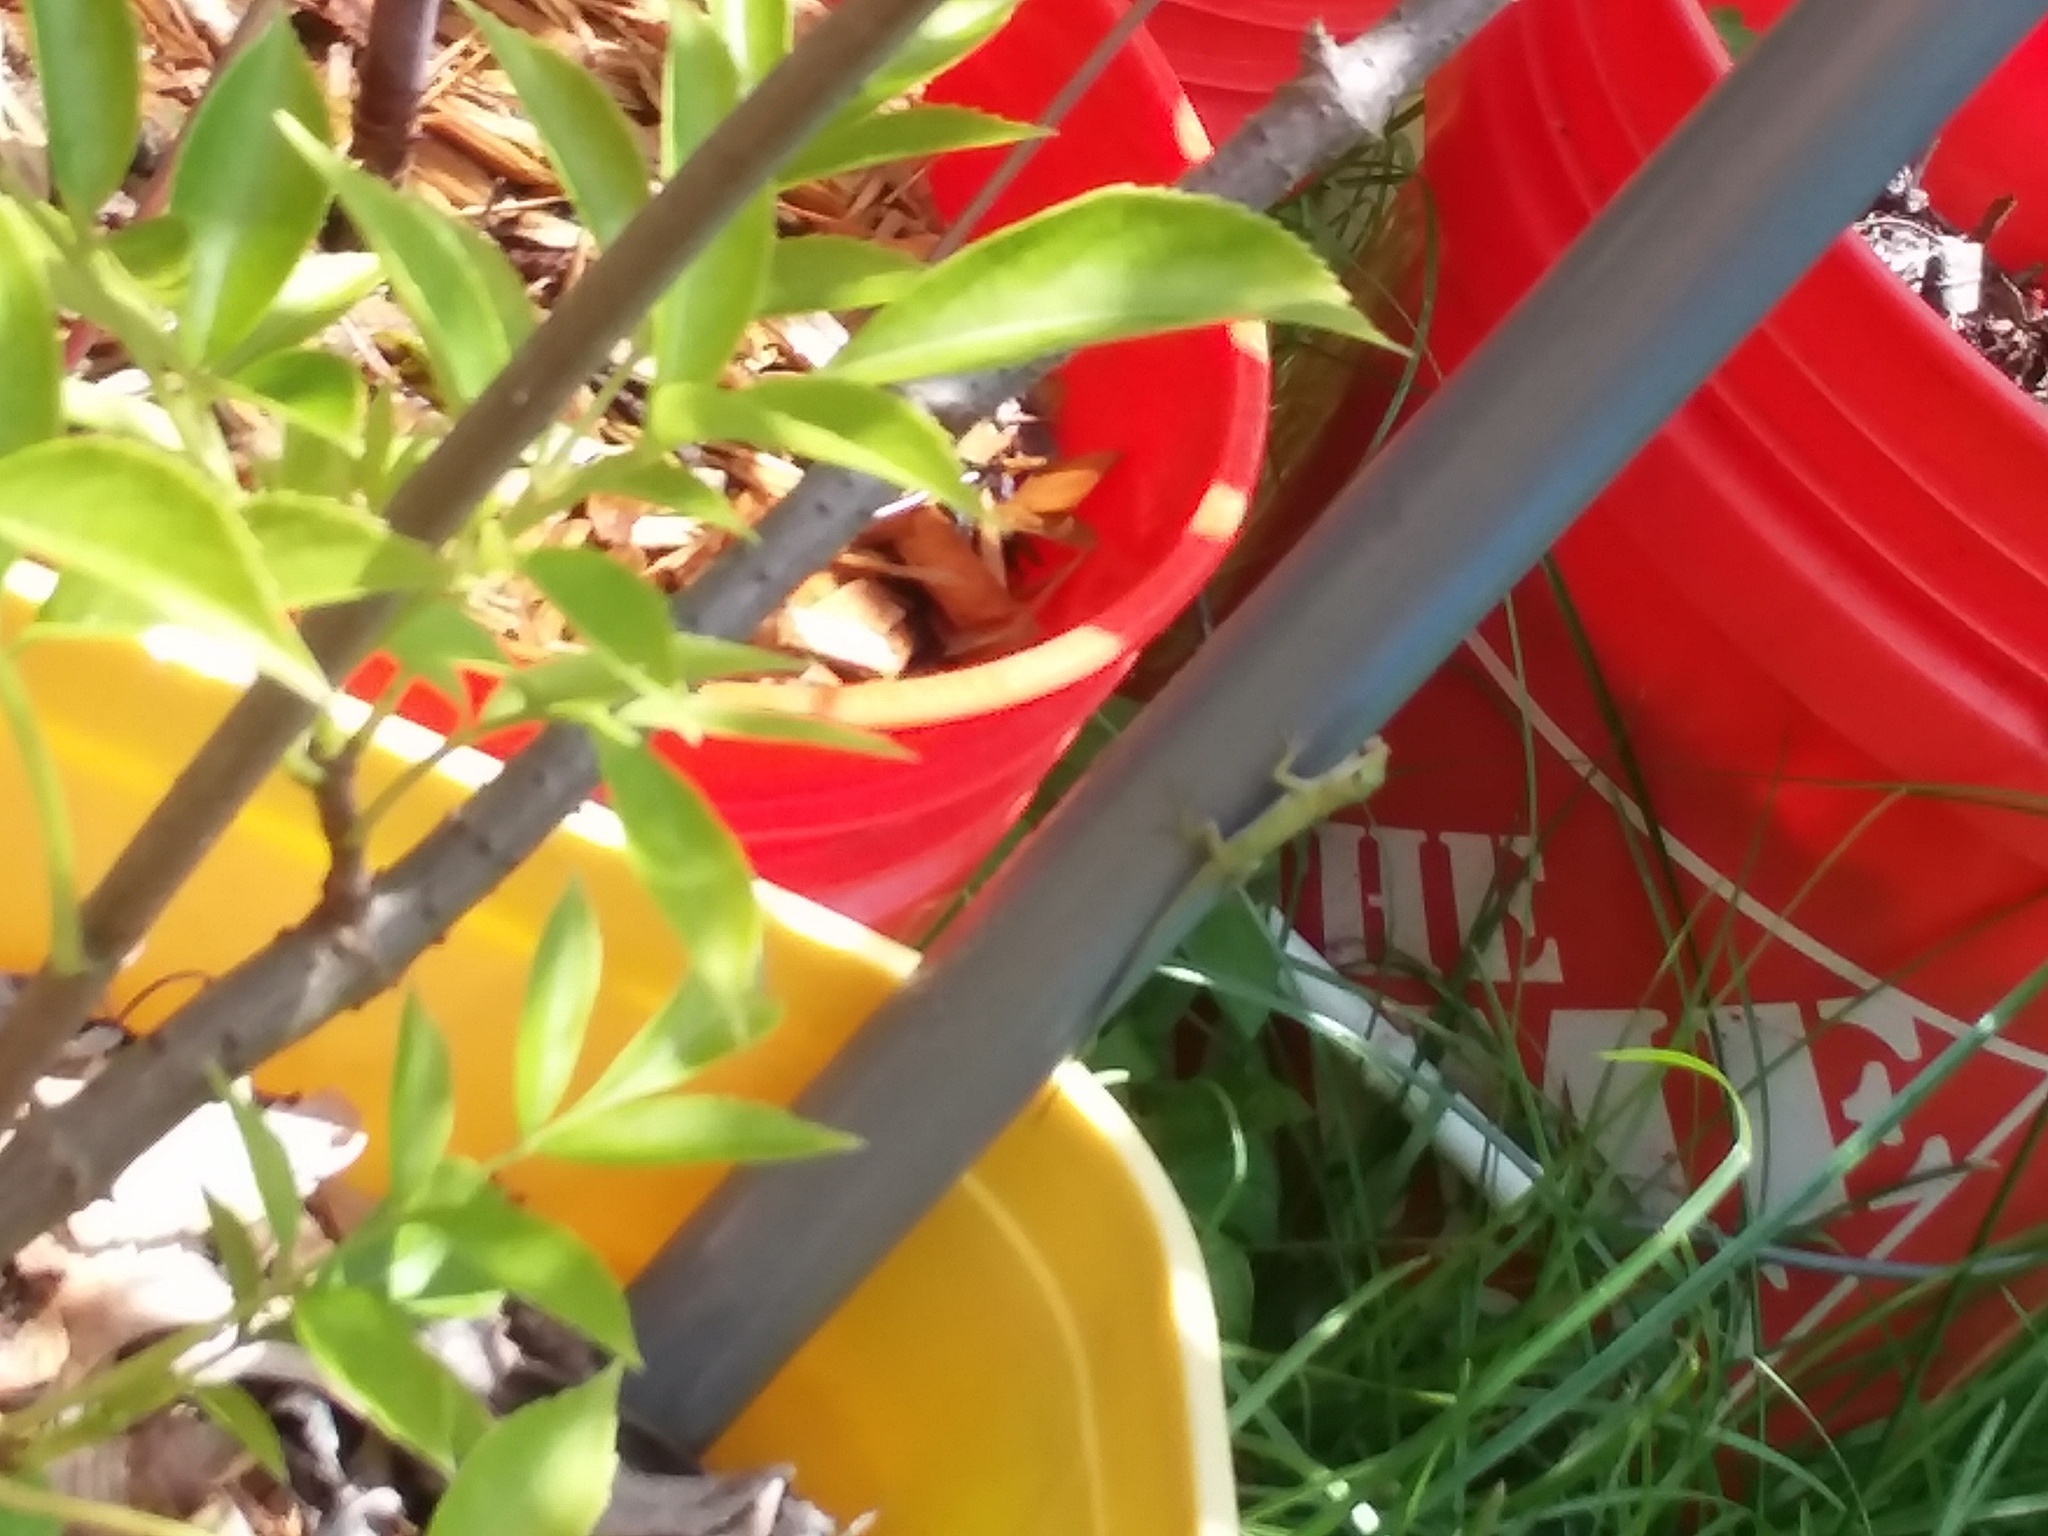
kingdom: Animalia
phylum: Chordata
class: Squamata
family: Dactyloidae
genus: Anolis
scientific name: Anolis carolinensis
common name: Green anole
